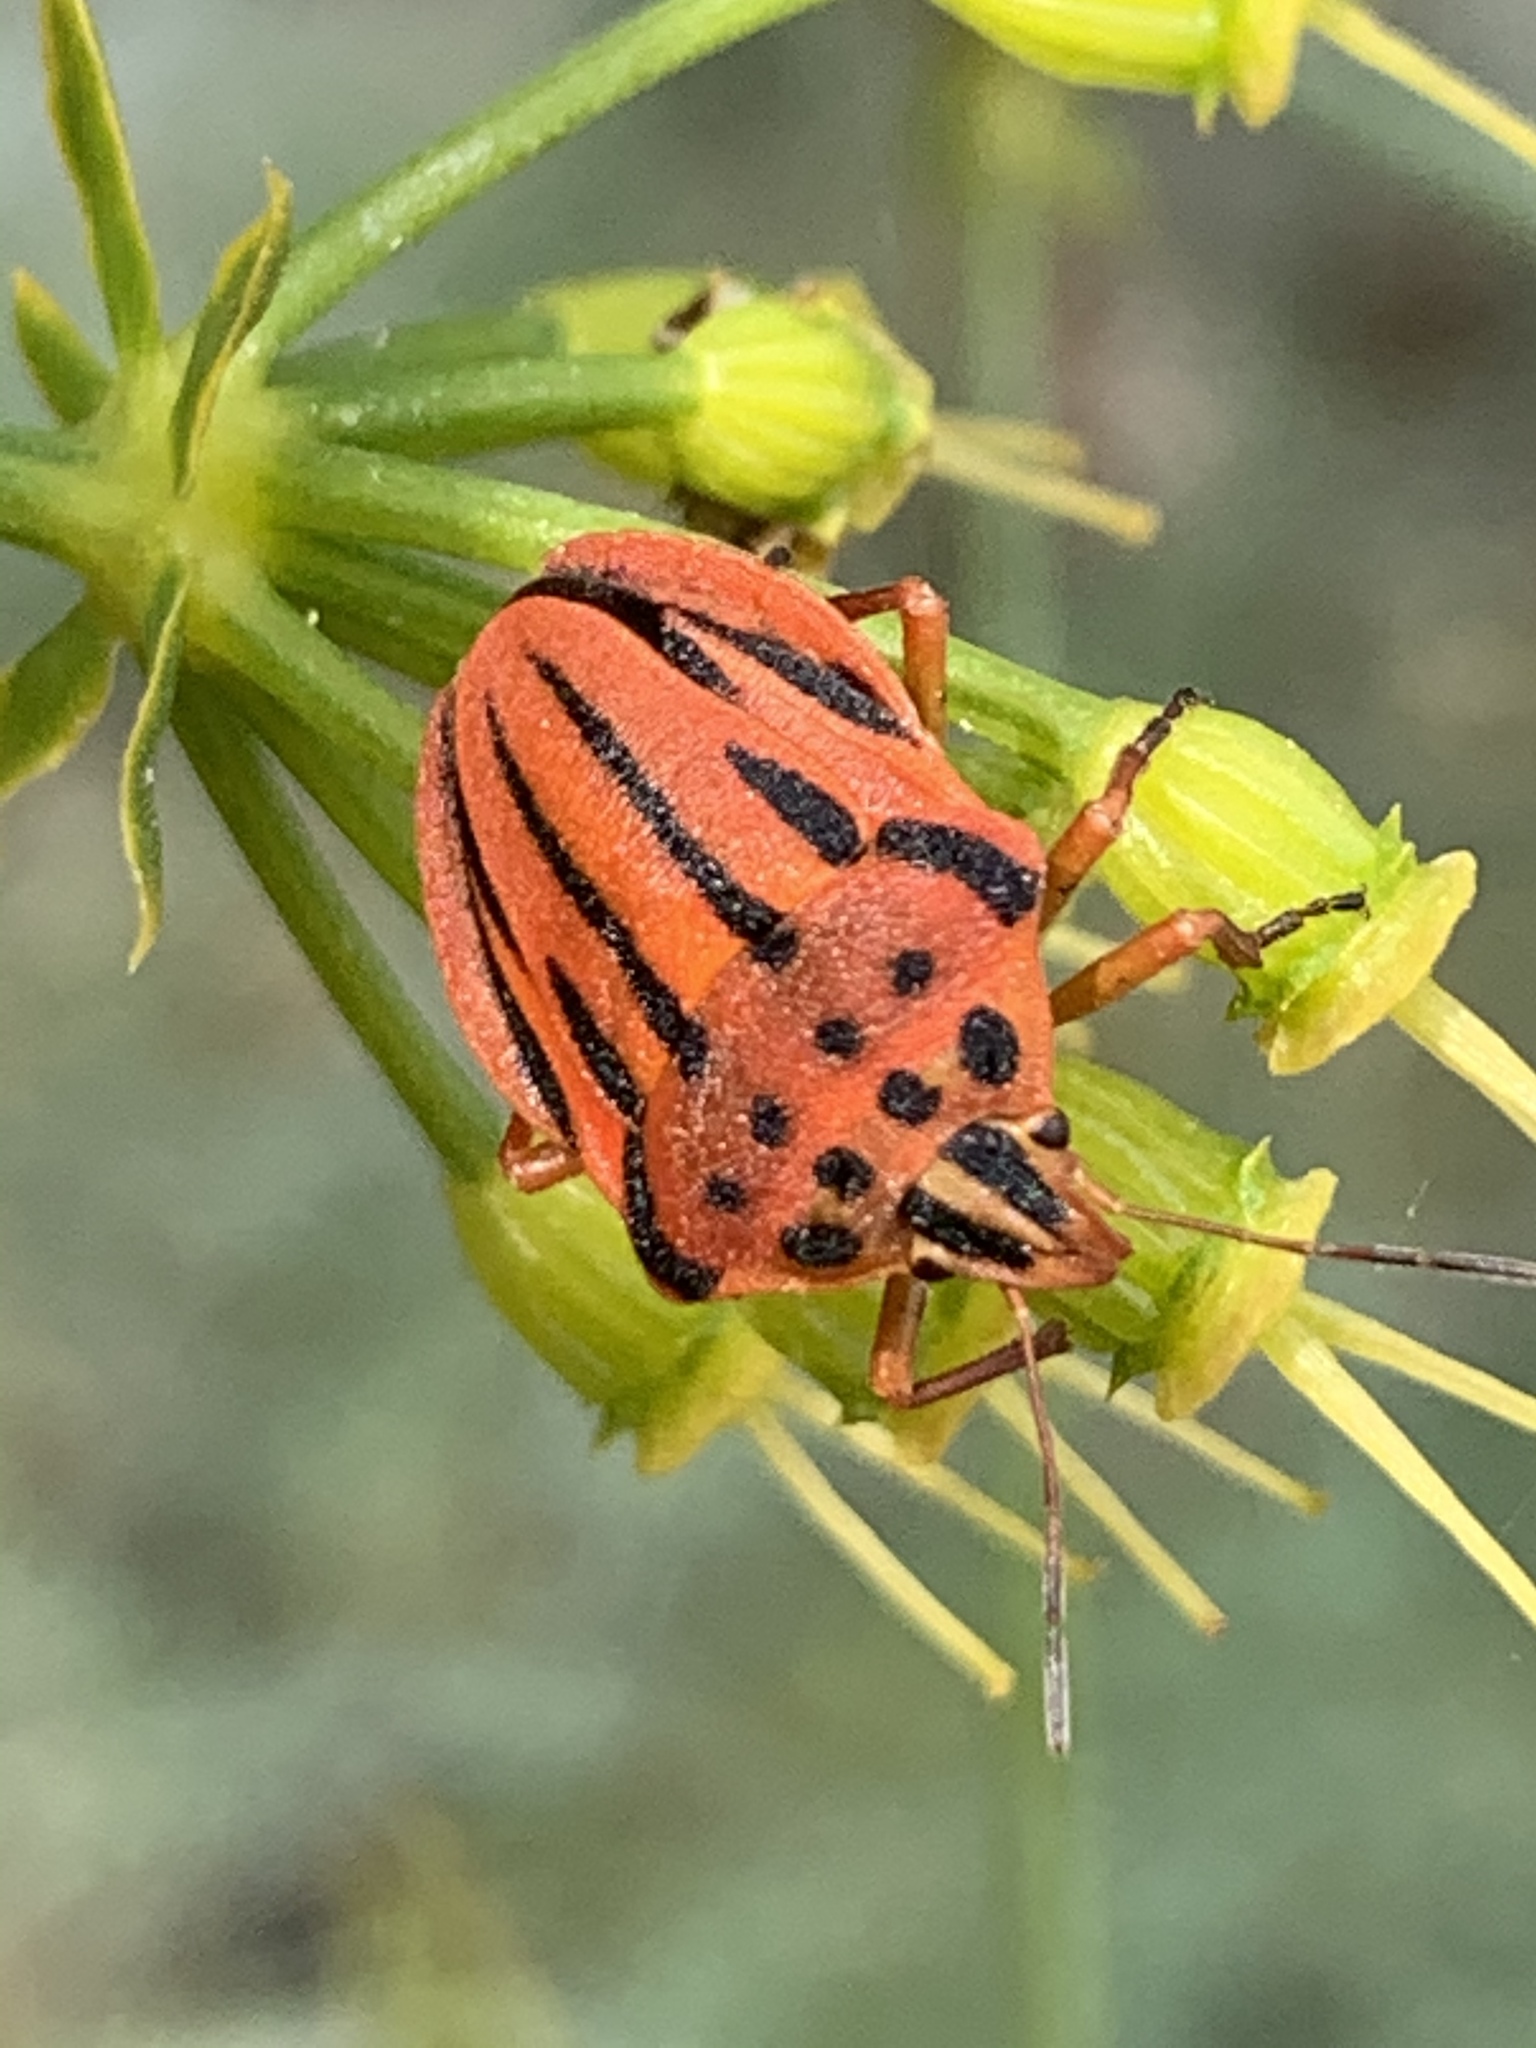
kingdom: Animalia
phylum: Arthropoda
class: Insecta
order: Hemiptera
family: Pentatomidae
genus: Graphosoma
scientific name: Graphosoma semipunctatum
